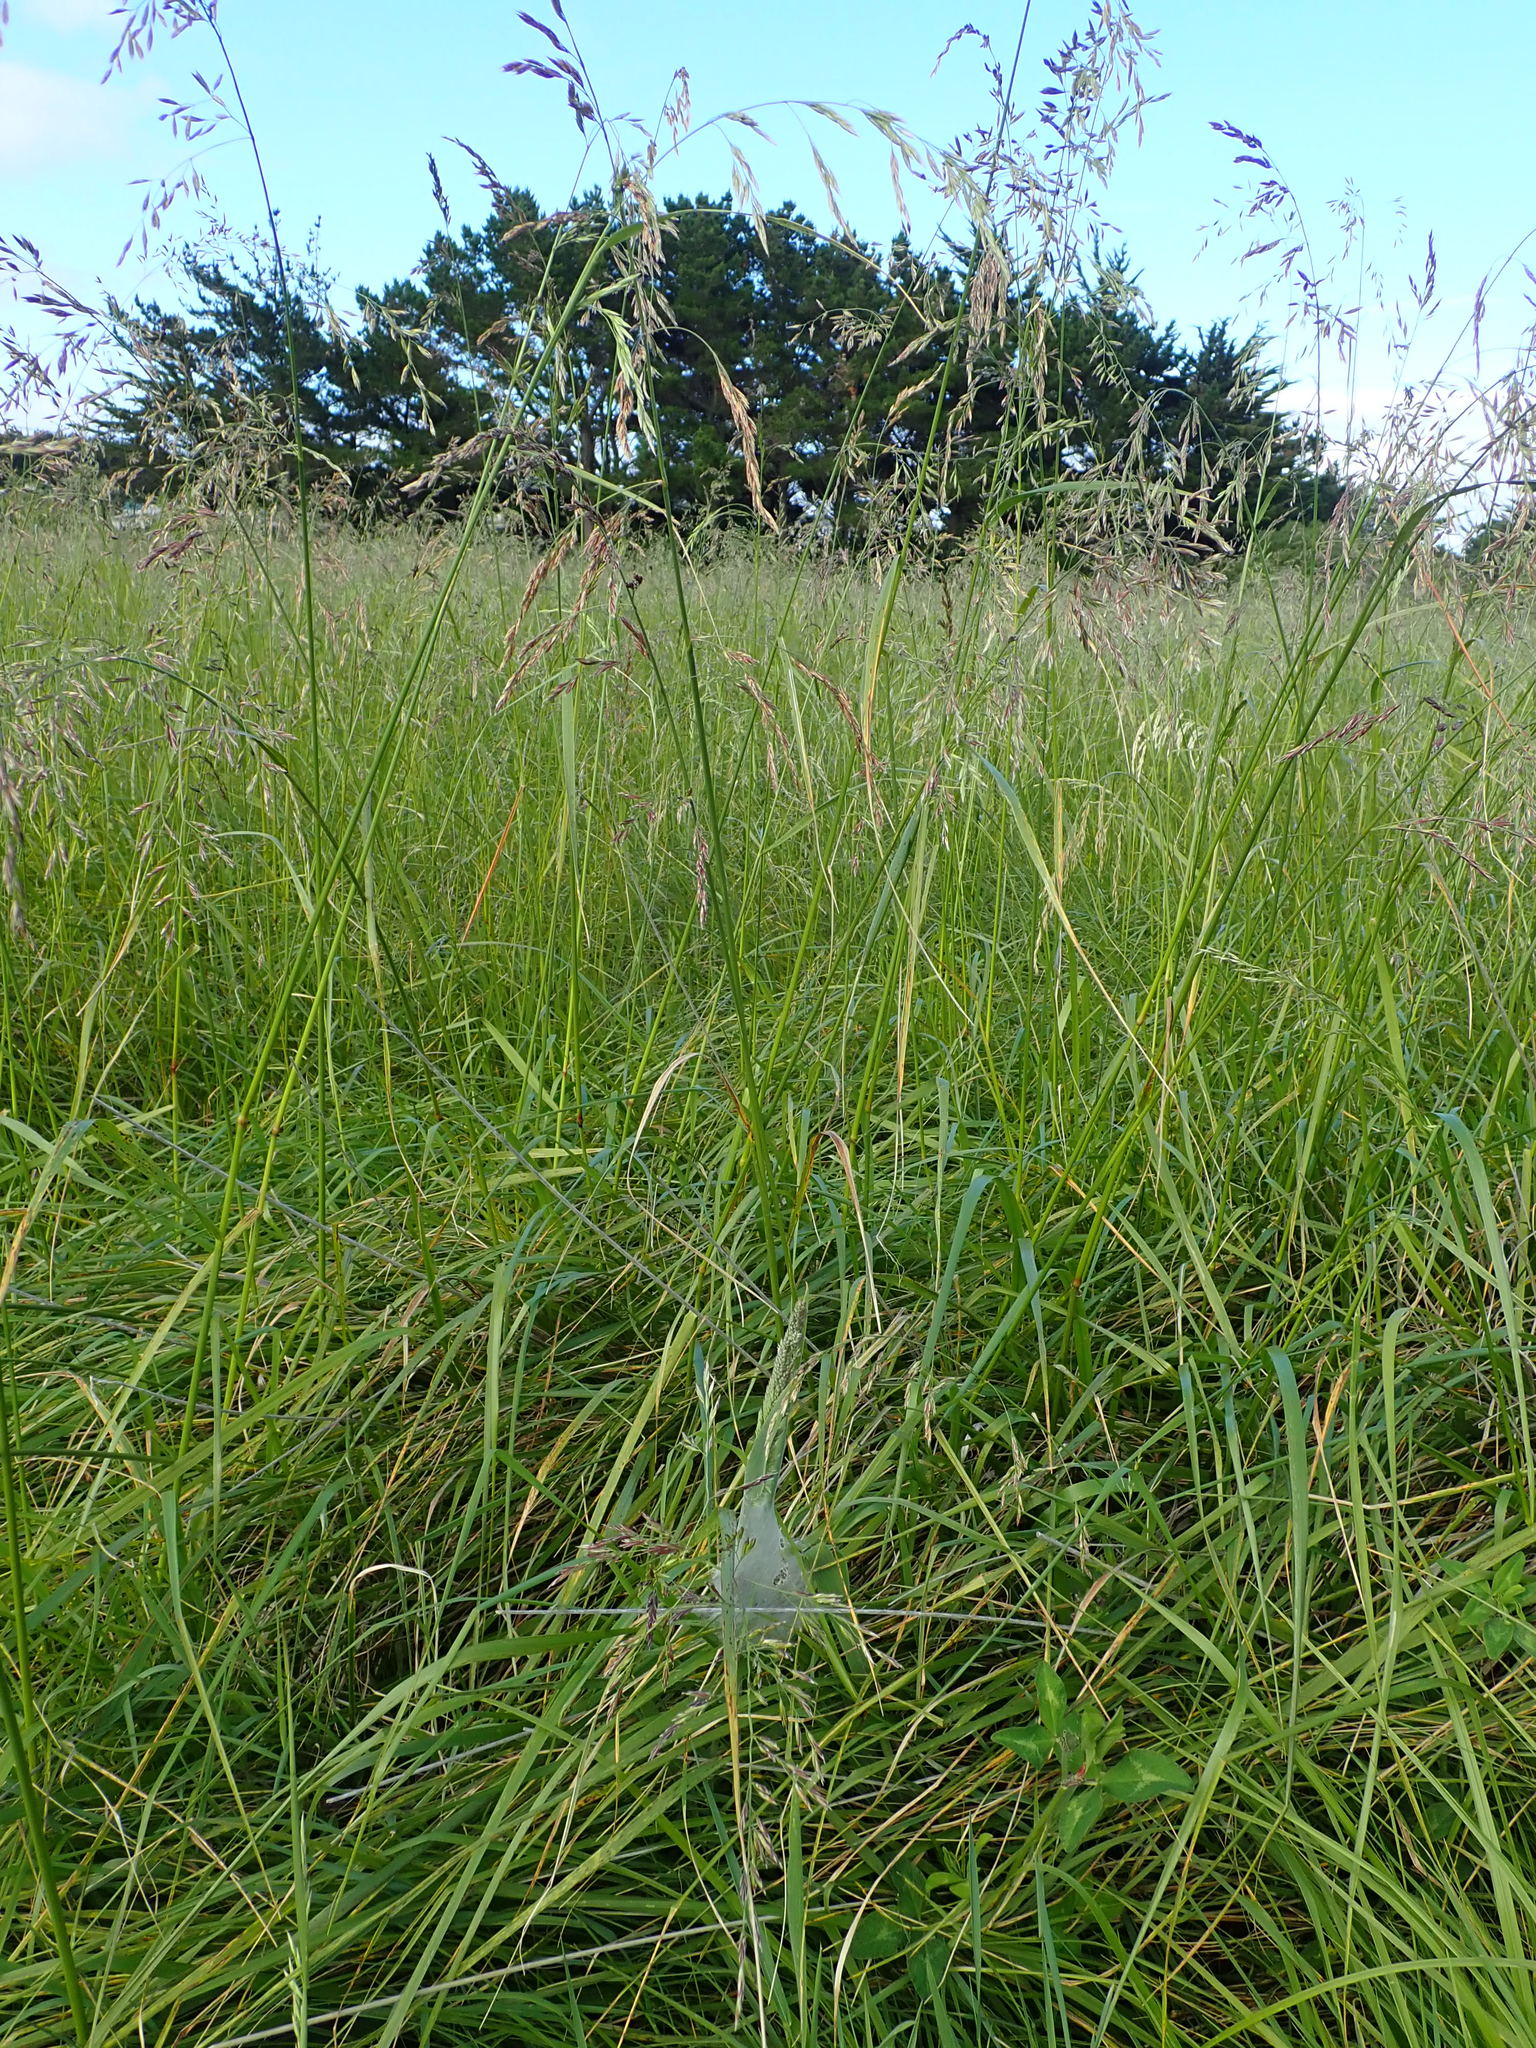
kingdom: Animalia
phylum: Arthropoda
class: Arachnida
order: Araneae
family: Pisauridae
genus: Dolomedes
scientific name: Dolomedes minor
